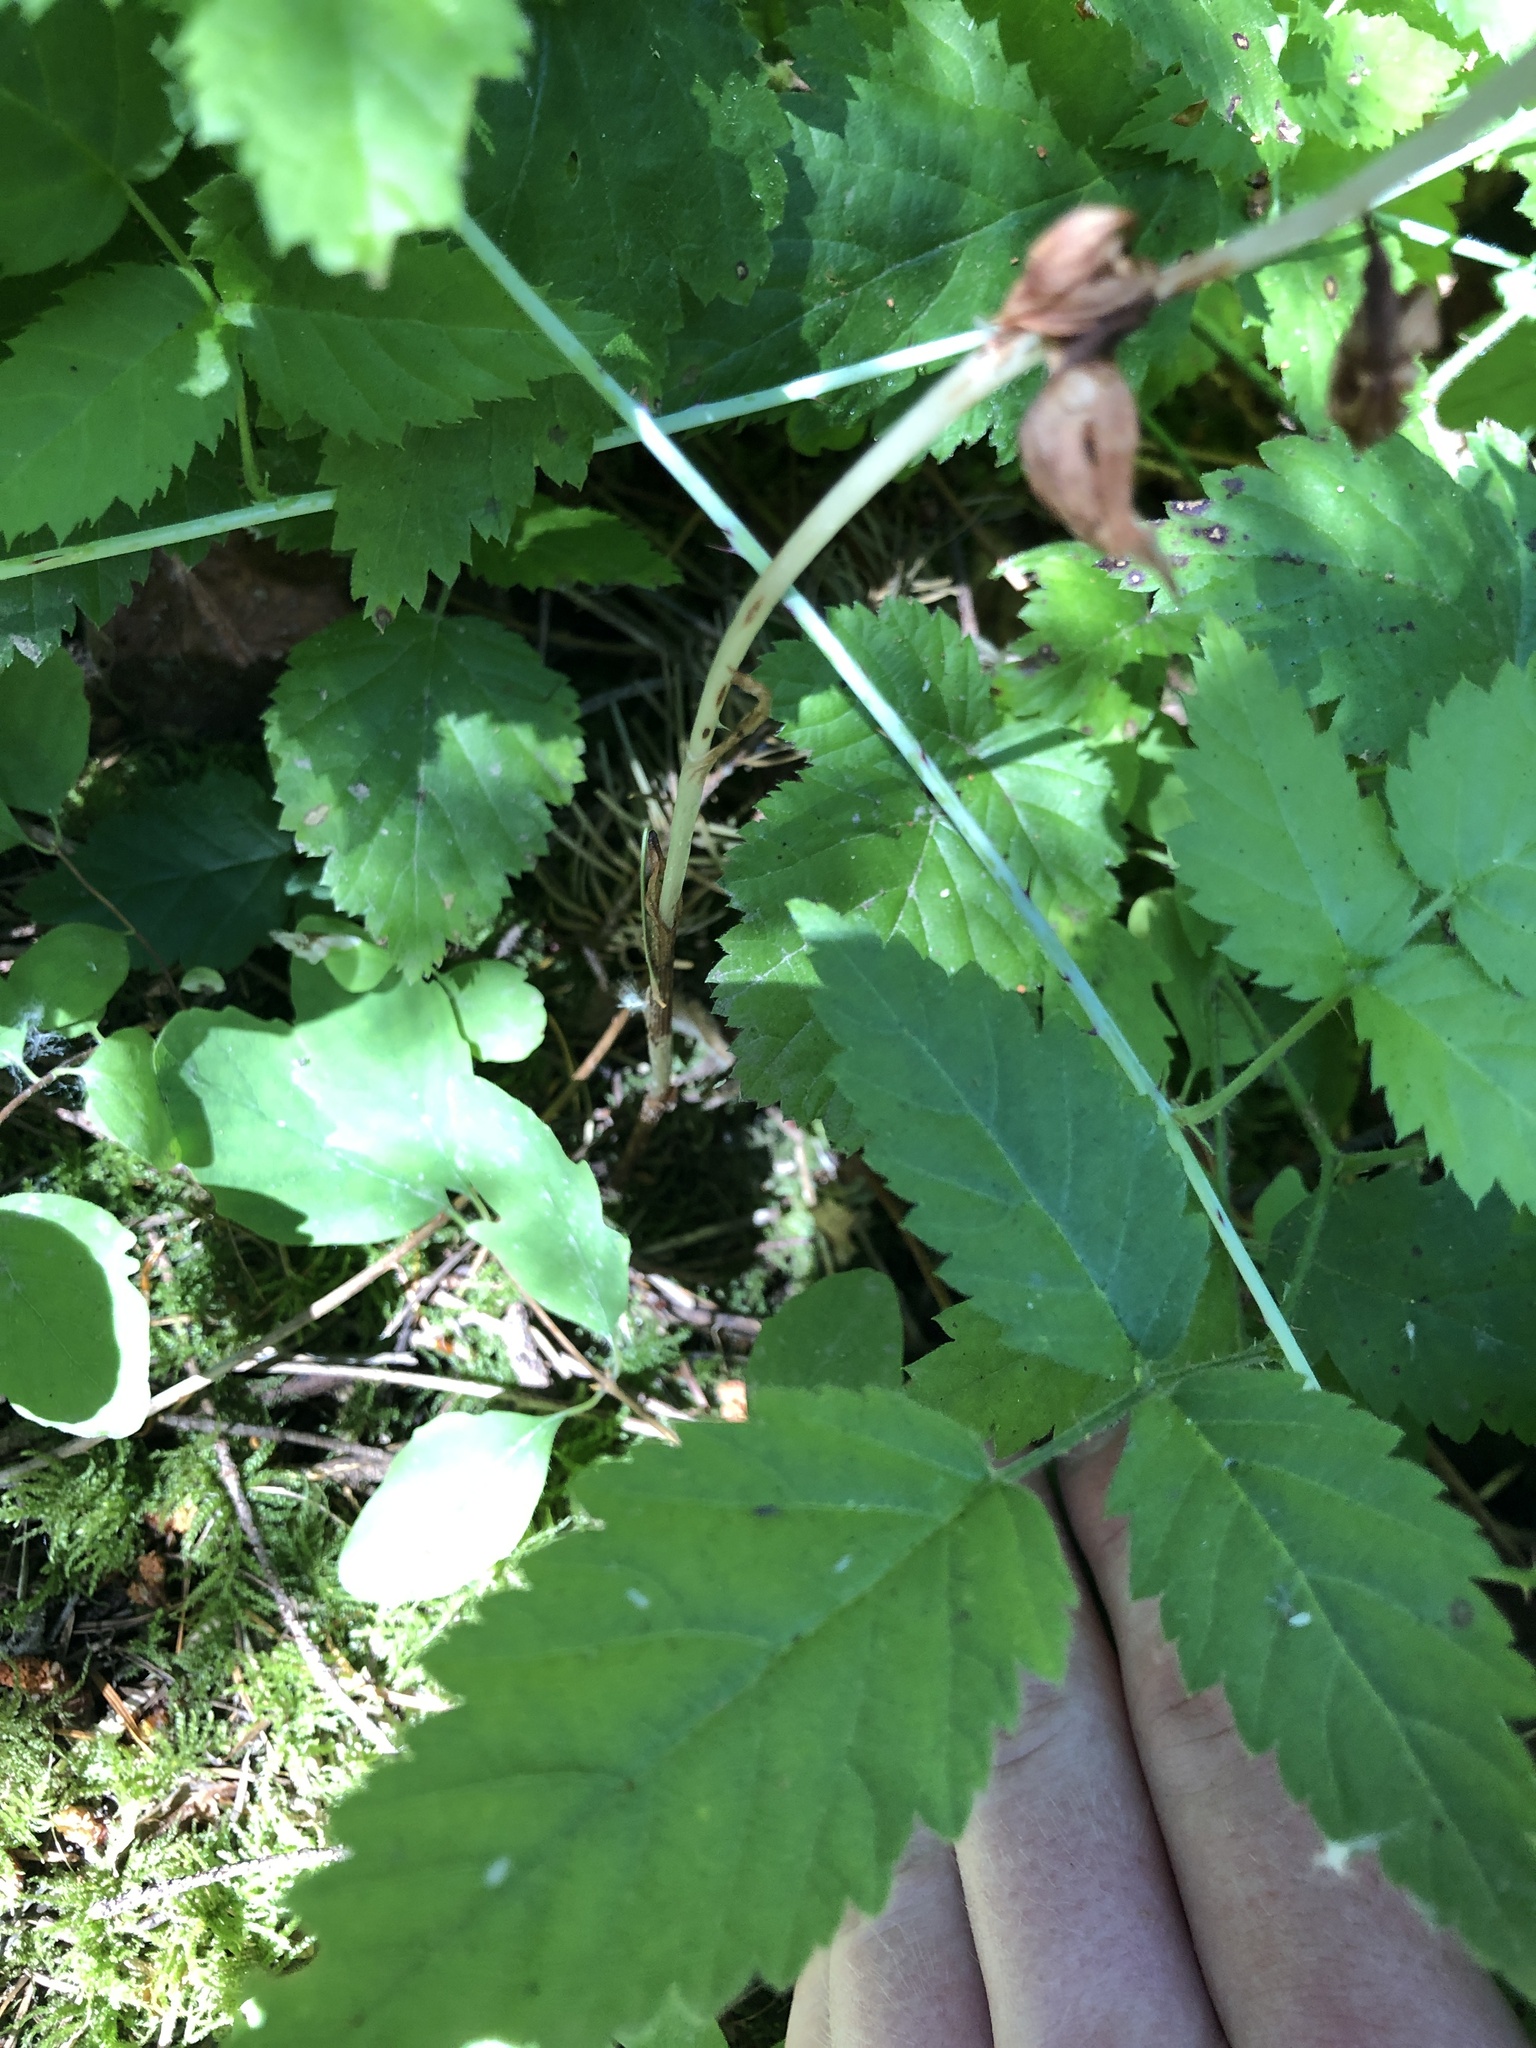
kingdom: Plantae
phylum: Tracheophyta
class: Liliopsida
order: Asparagales
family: Orchidaceae
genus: Cephalanthera
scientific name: Cephalanthera austiniae
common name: Phantom orchid
